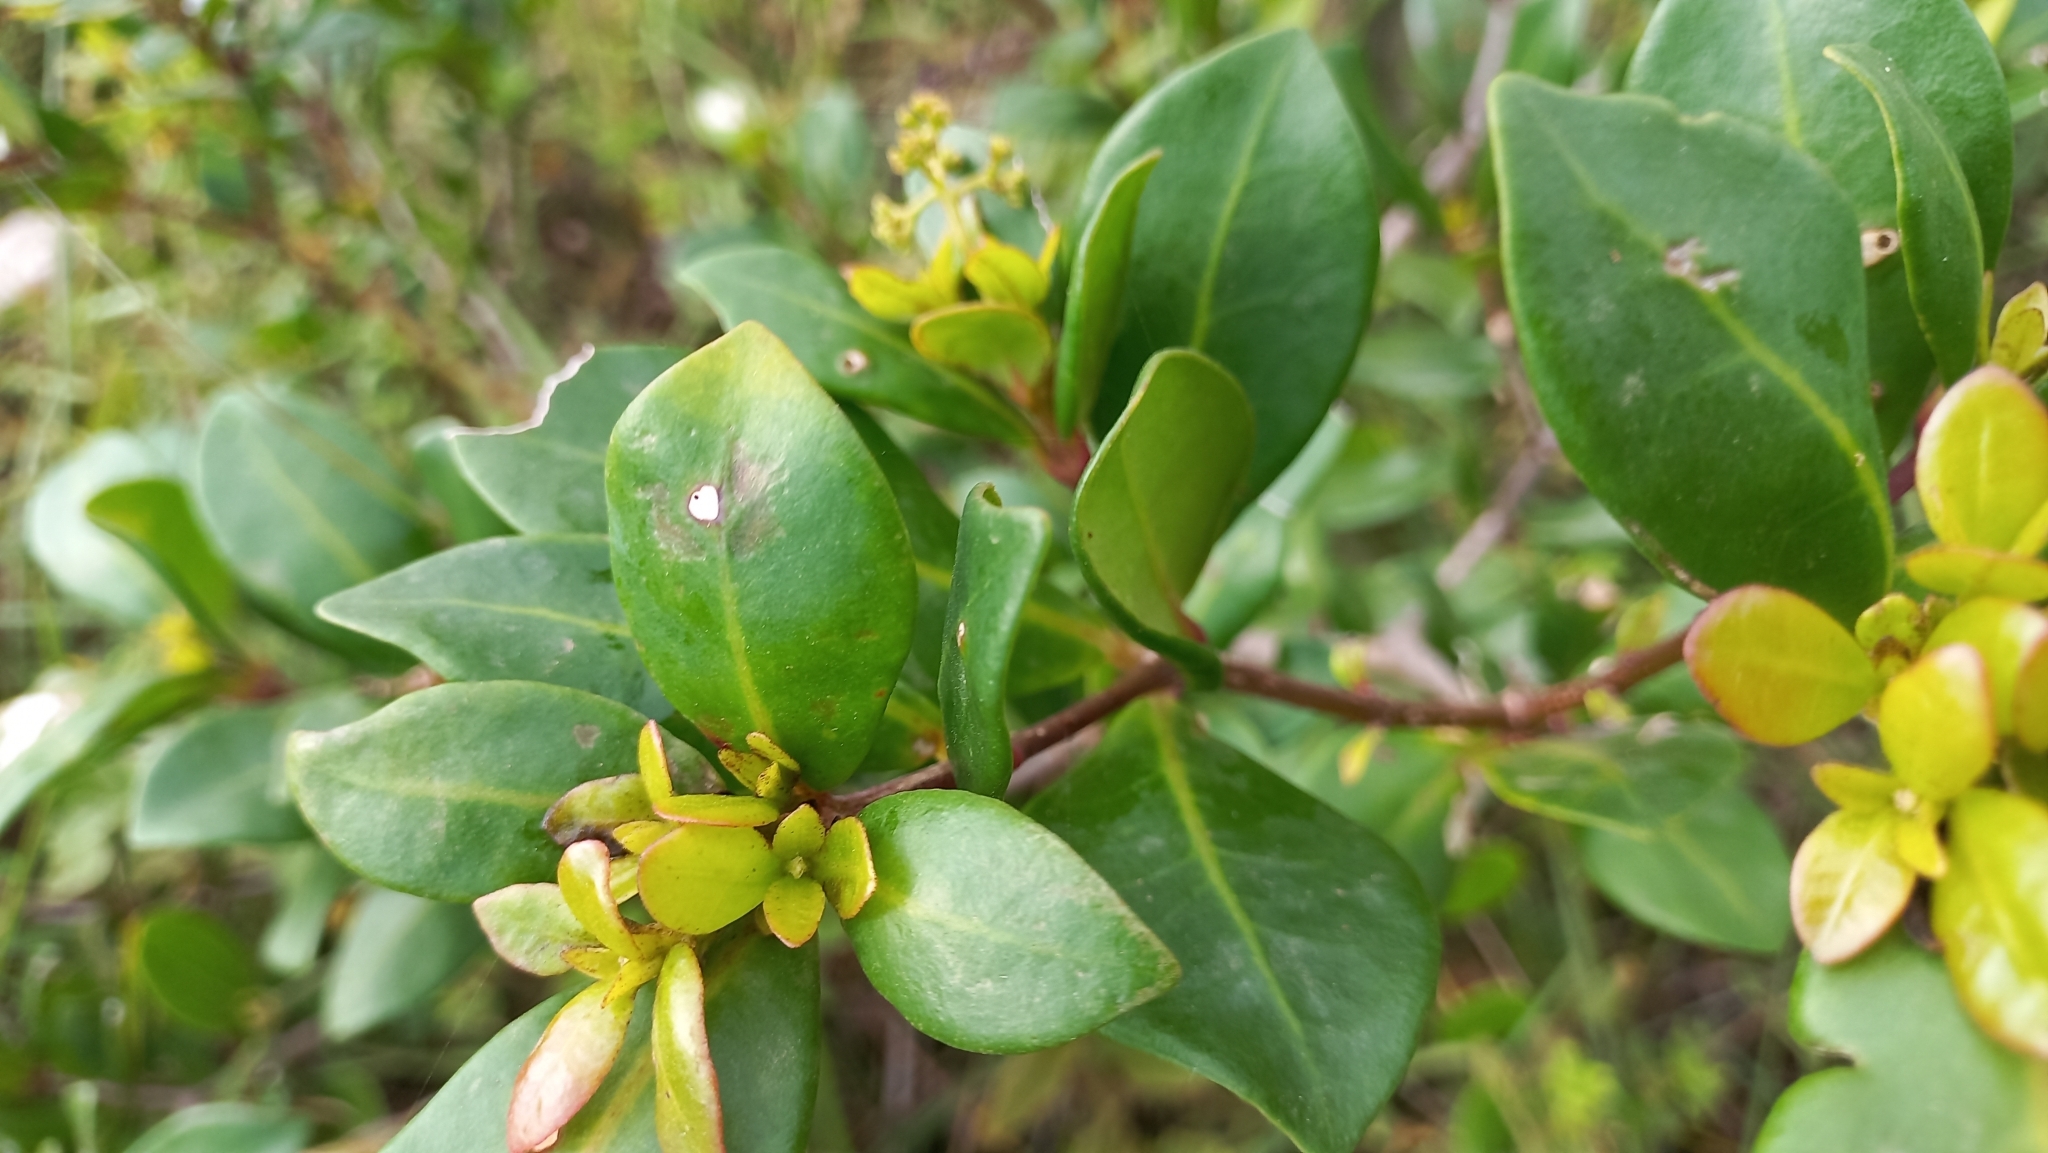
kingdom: Plantae
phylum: Tracheophyta
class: Magnoliopsida
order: Caryophyllales
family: Nyctaginaceae
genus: Guapira
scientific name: Guapira opposita
